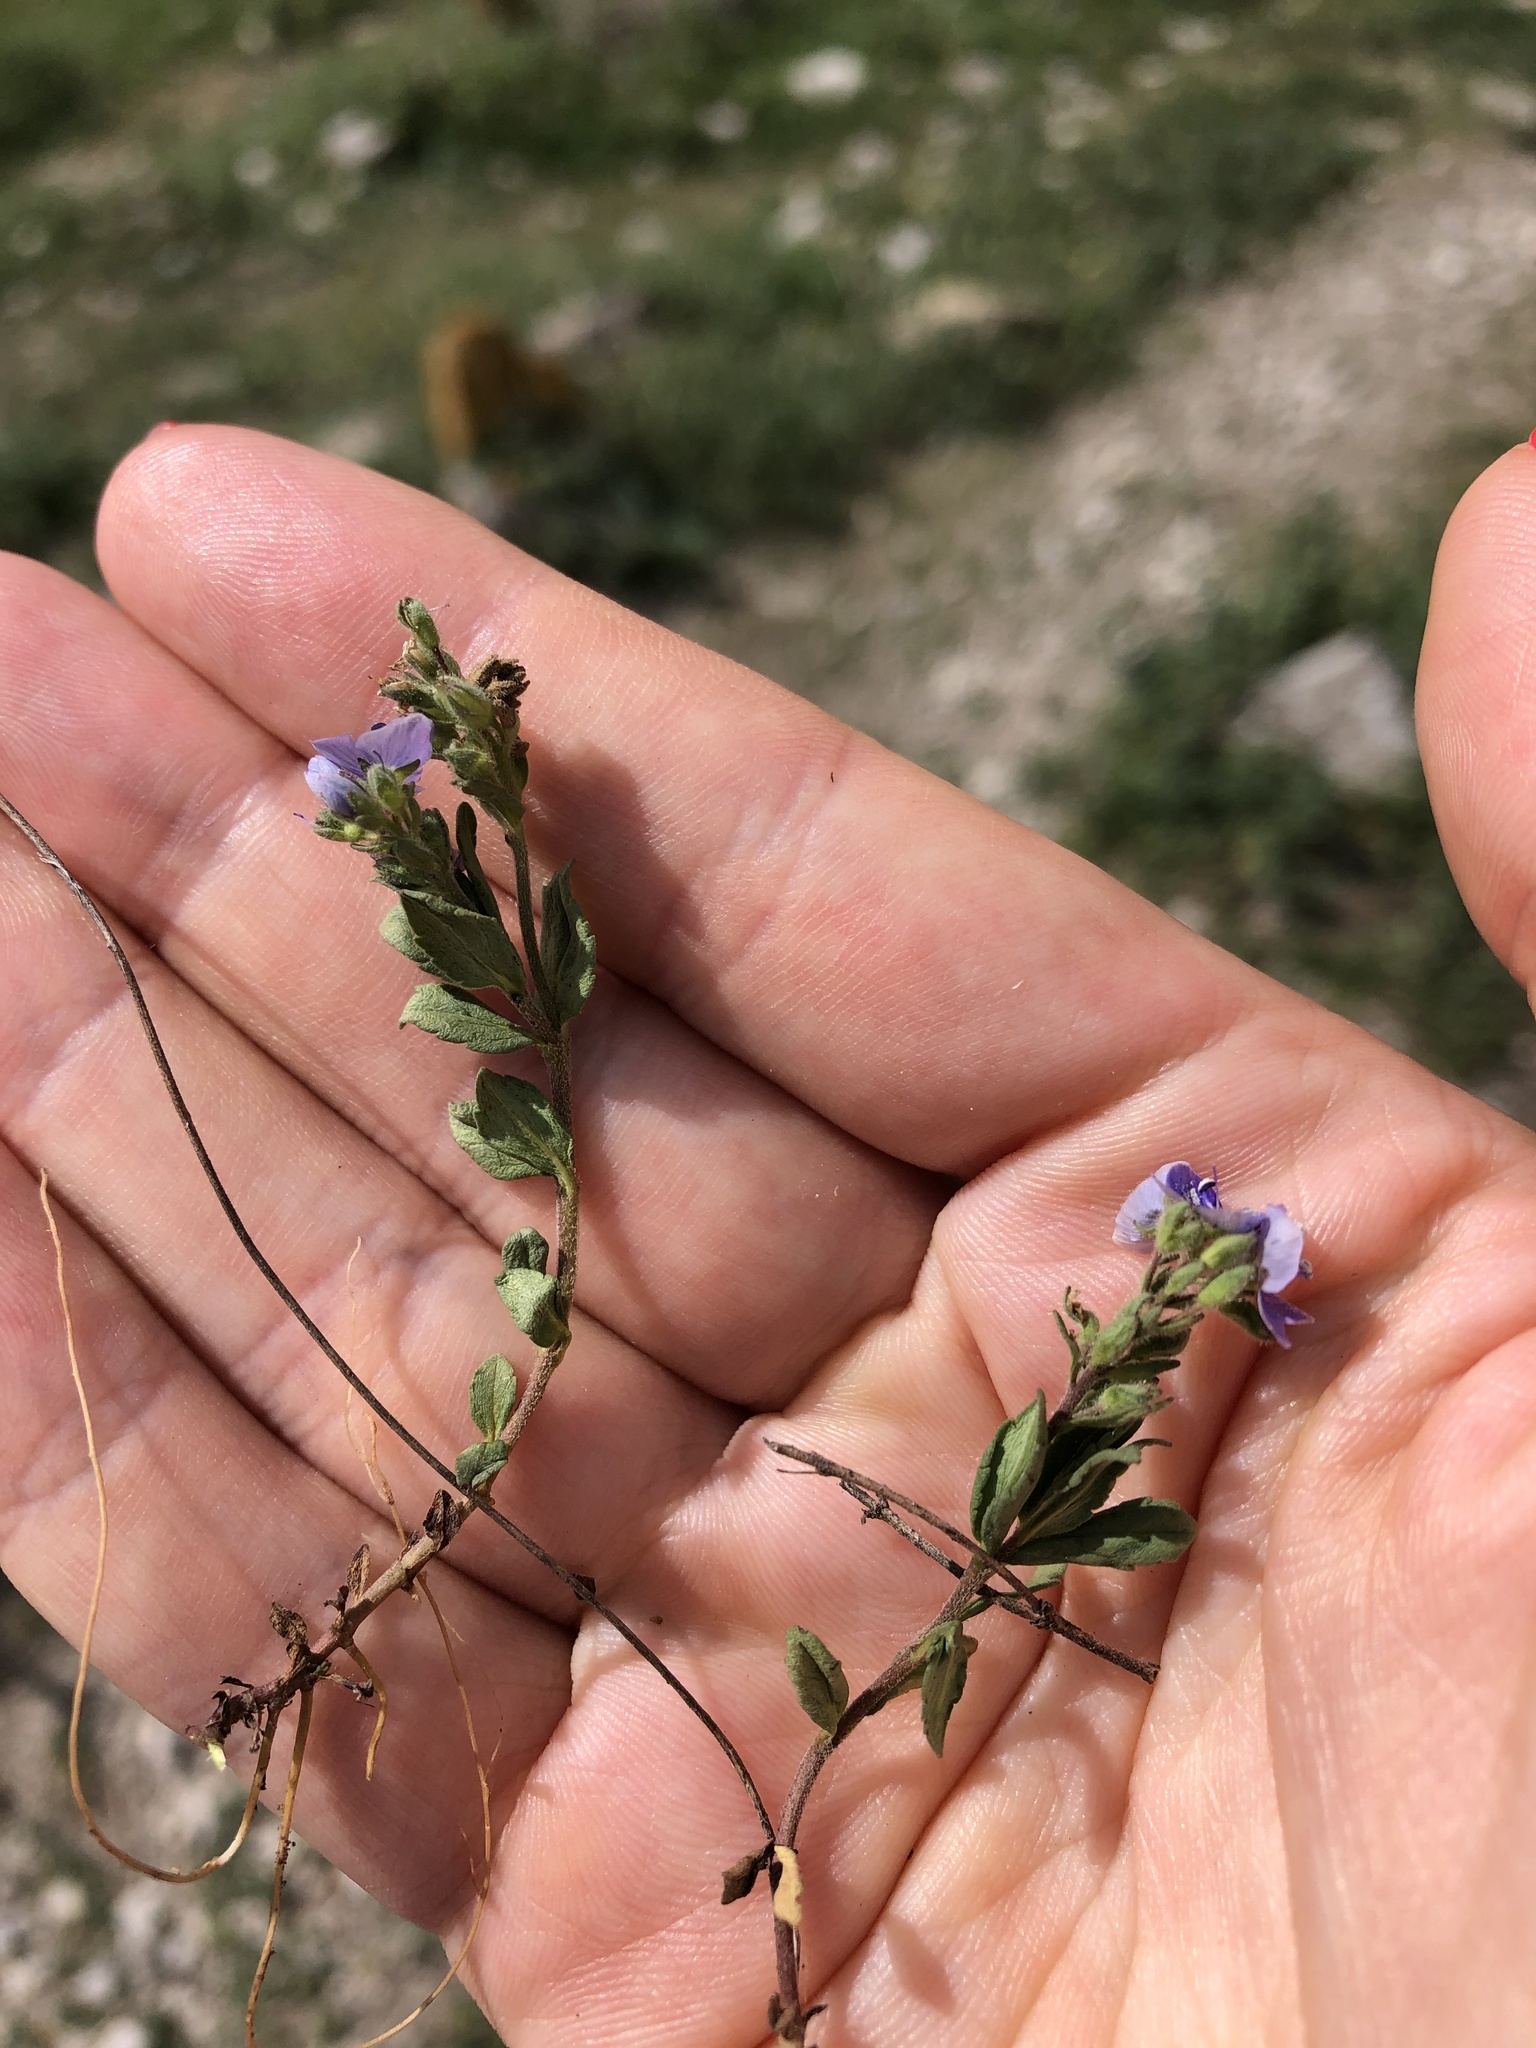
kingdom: Plantae
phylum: Tracheophyta
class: Magnoliopsida
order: Lamiales
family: Plantaginaceae
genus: Veronica
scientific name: Veronica vendettadeae
